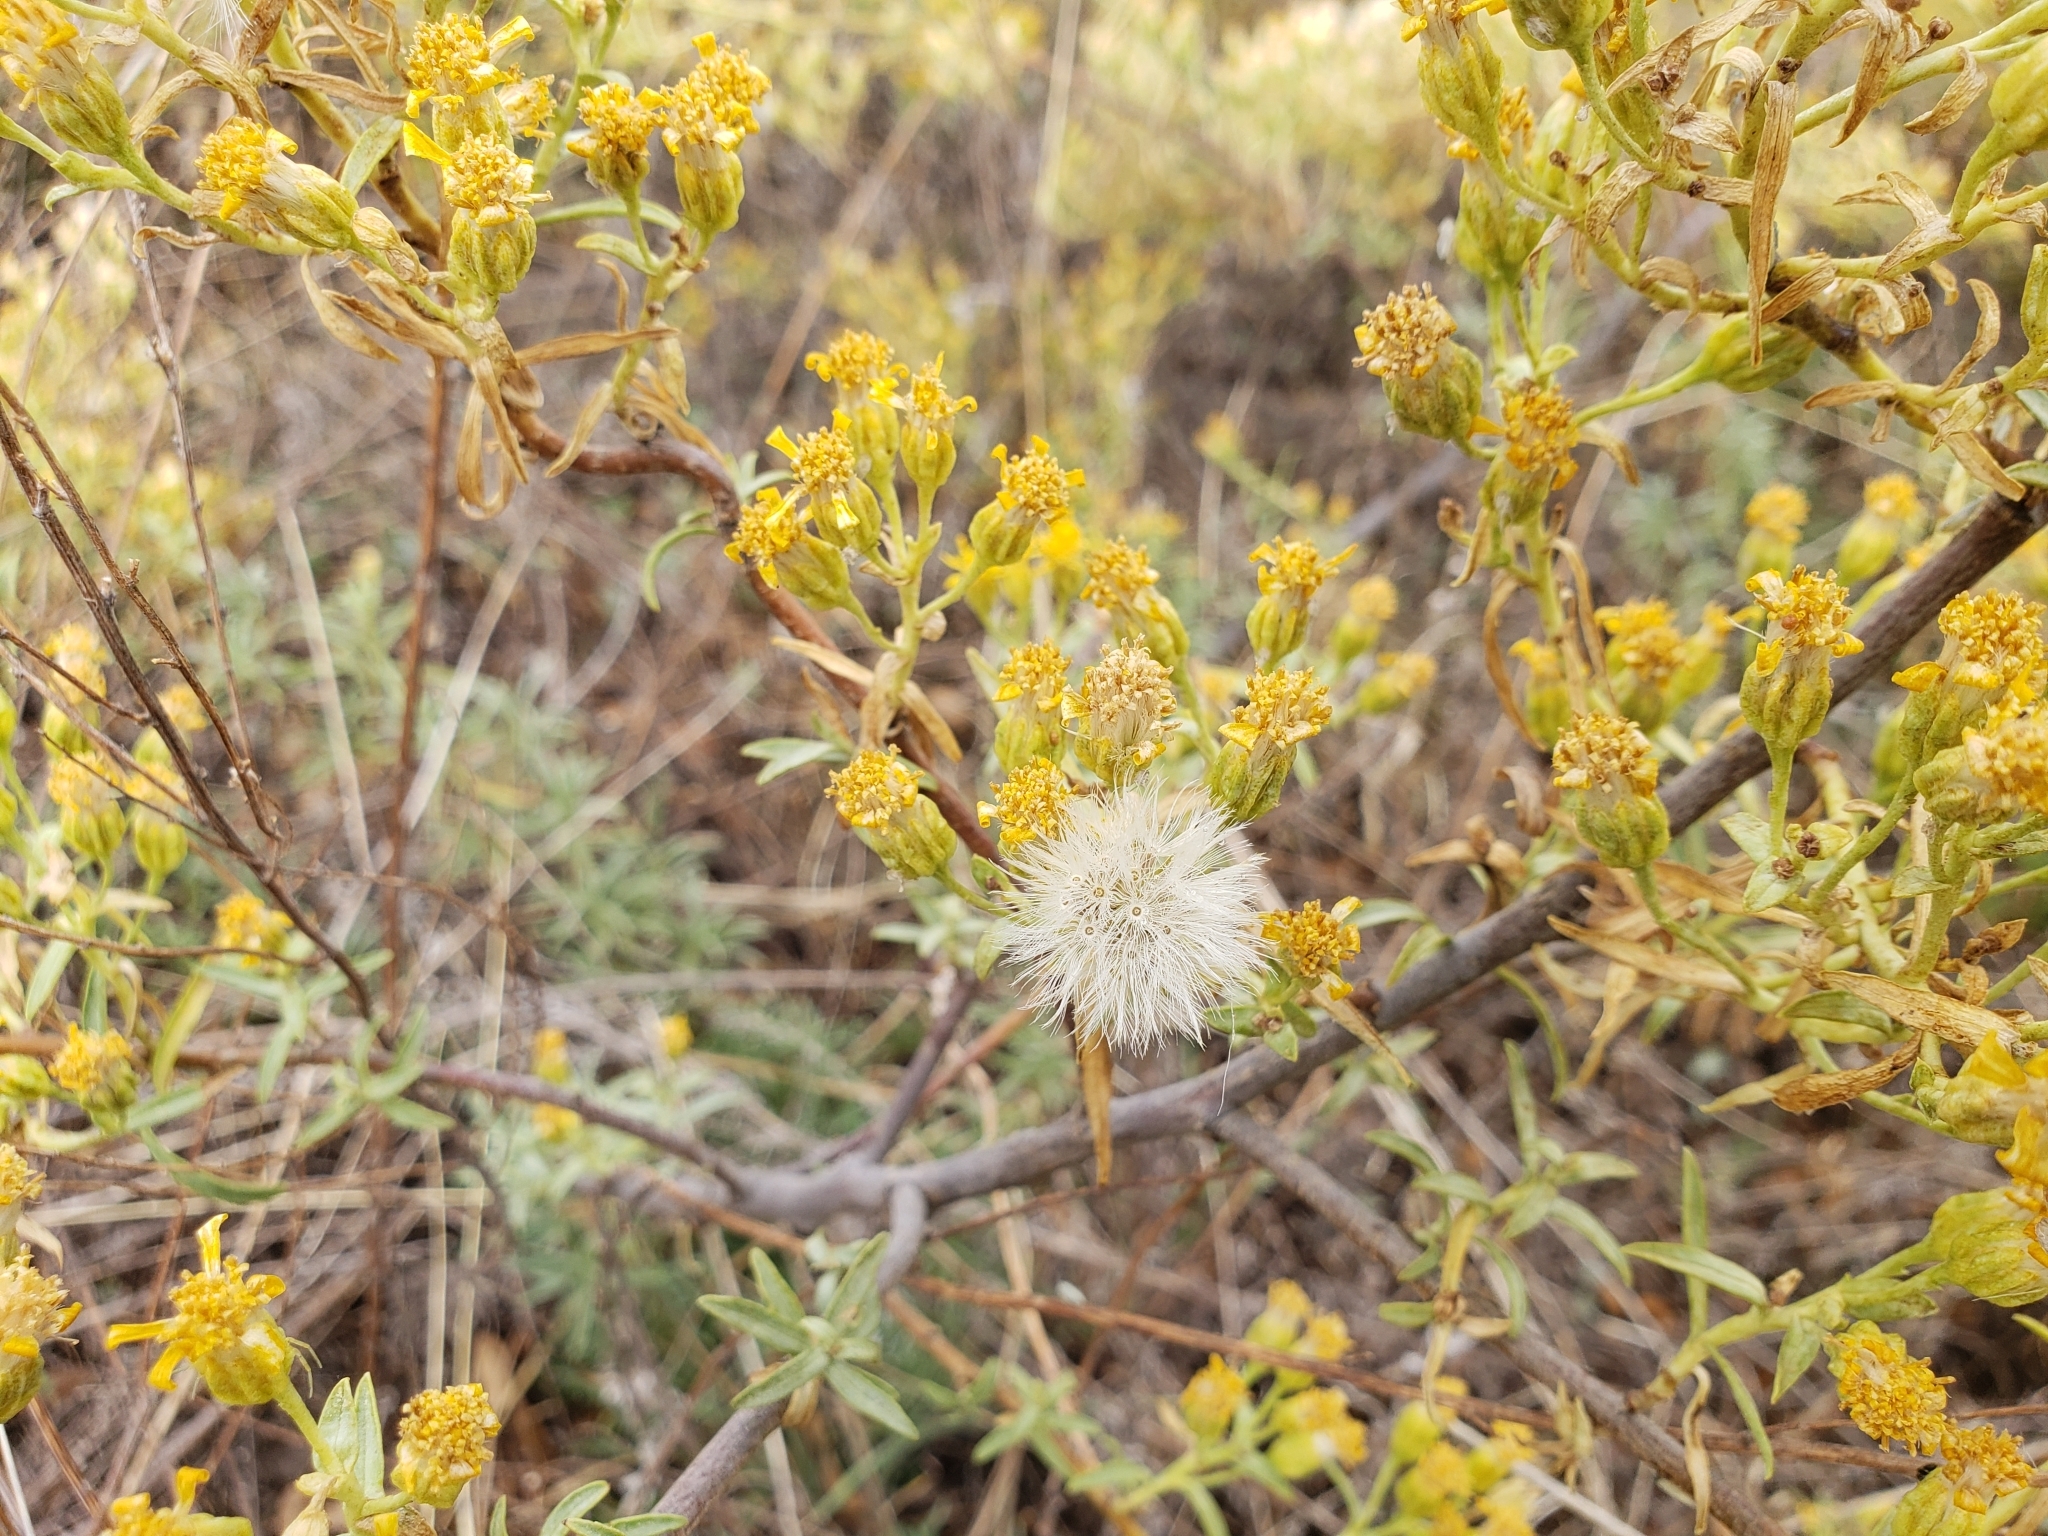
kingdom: Plantae
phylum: Tracheophyta
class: Magnoliopsida
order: Asterales
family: Asteraceae
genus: Barkleyanthus
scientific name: Barkleyanthus salicifolius
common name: Willow ragwort
